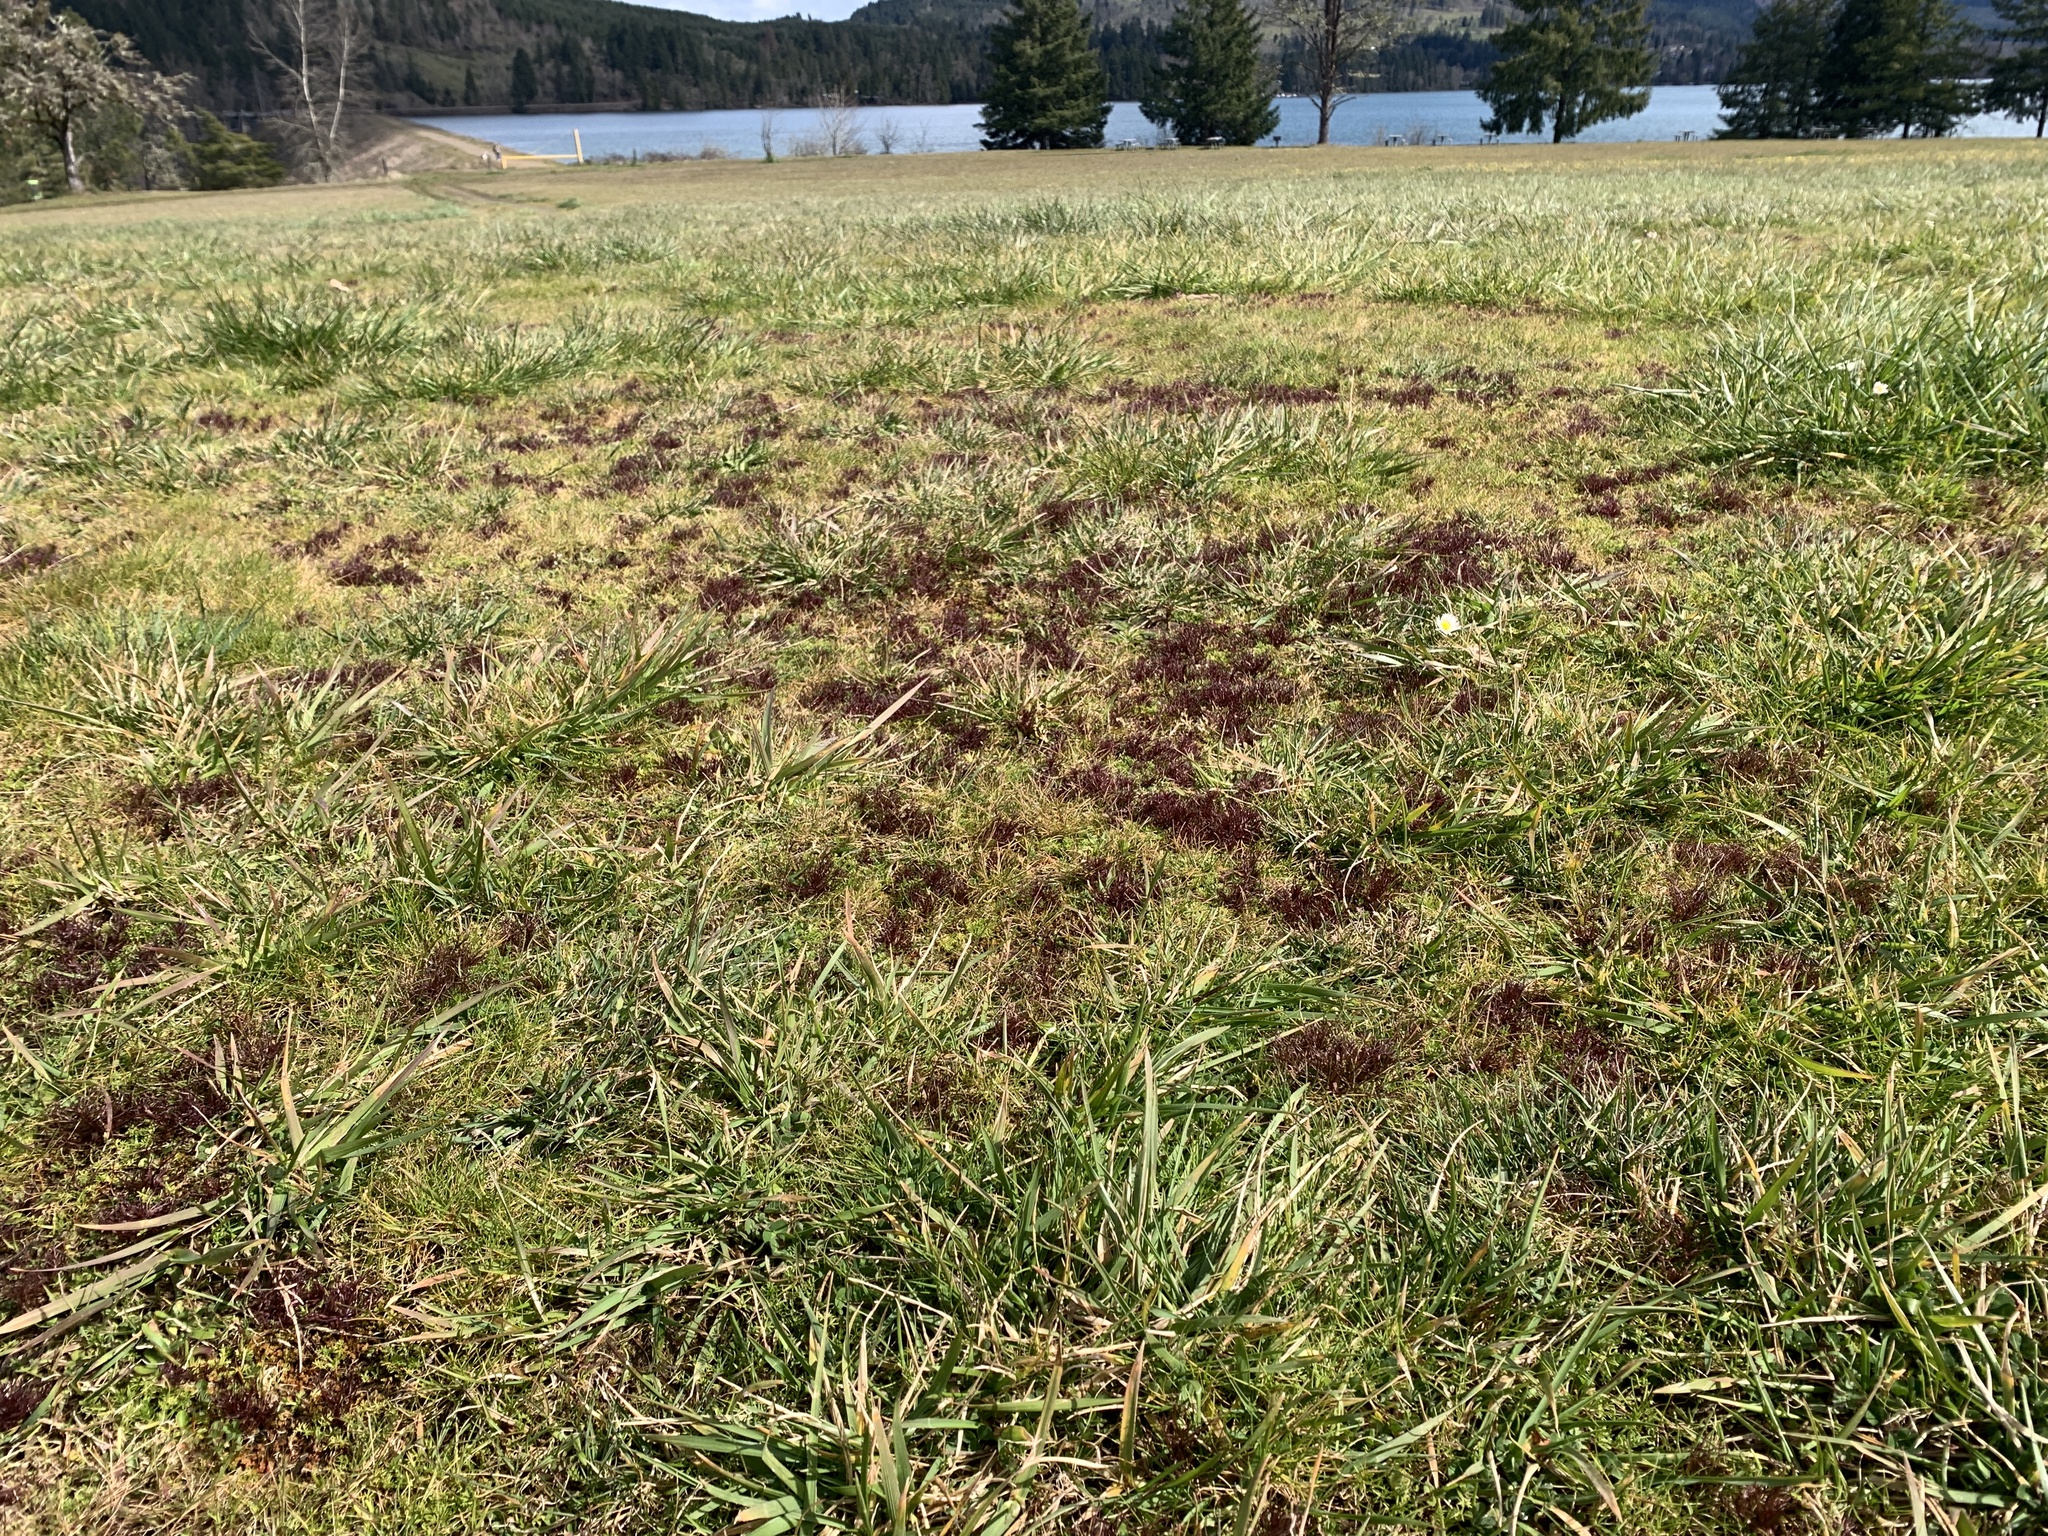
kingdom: Plantae
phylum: Tracheophyta
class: Magnoliopsida
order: Lamiales
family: Orobanchaceae
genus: Triphysaria
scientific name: Triphysaria pusilla
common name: Dwarf false owl-clover
